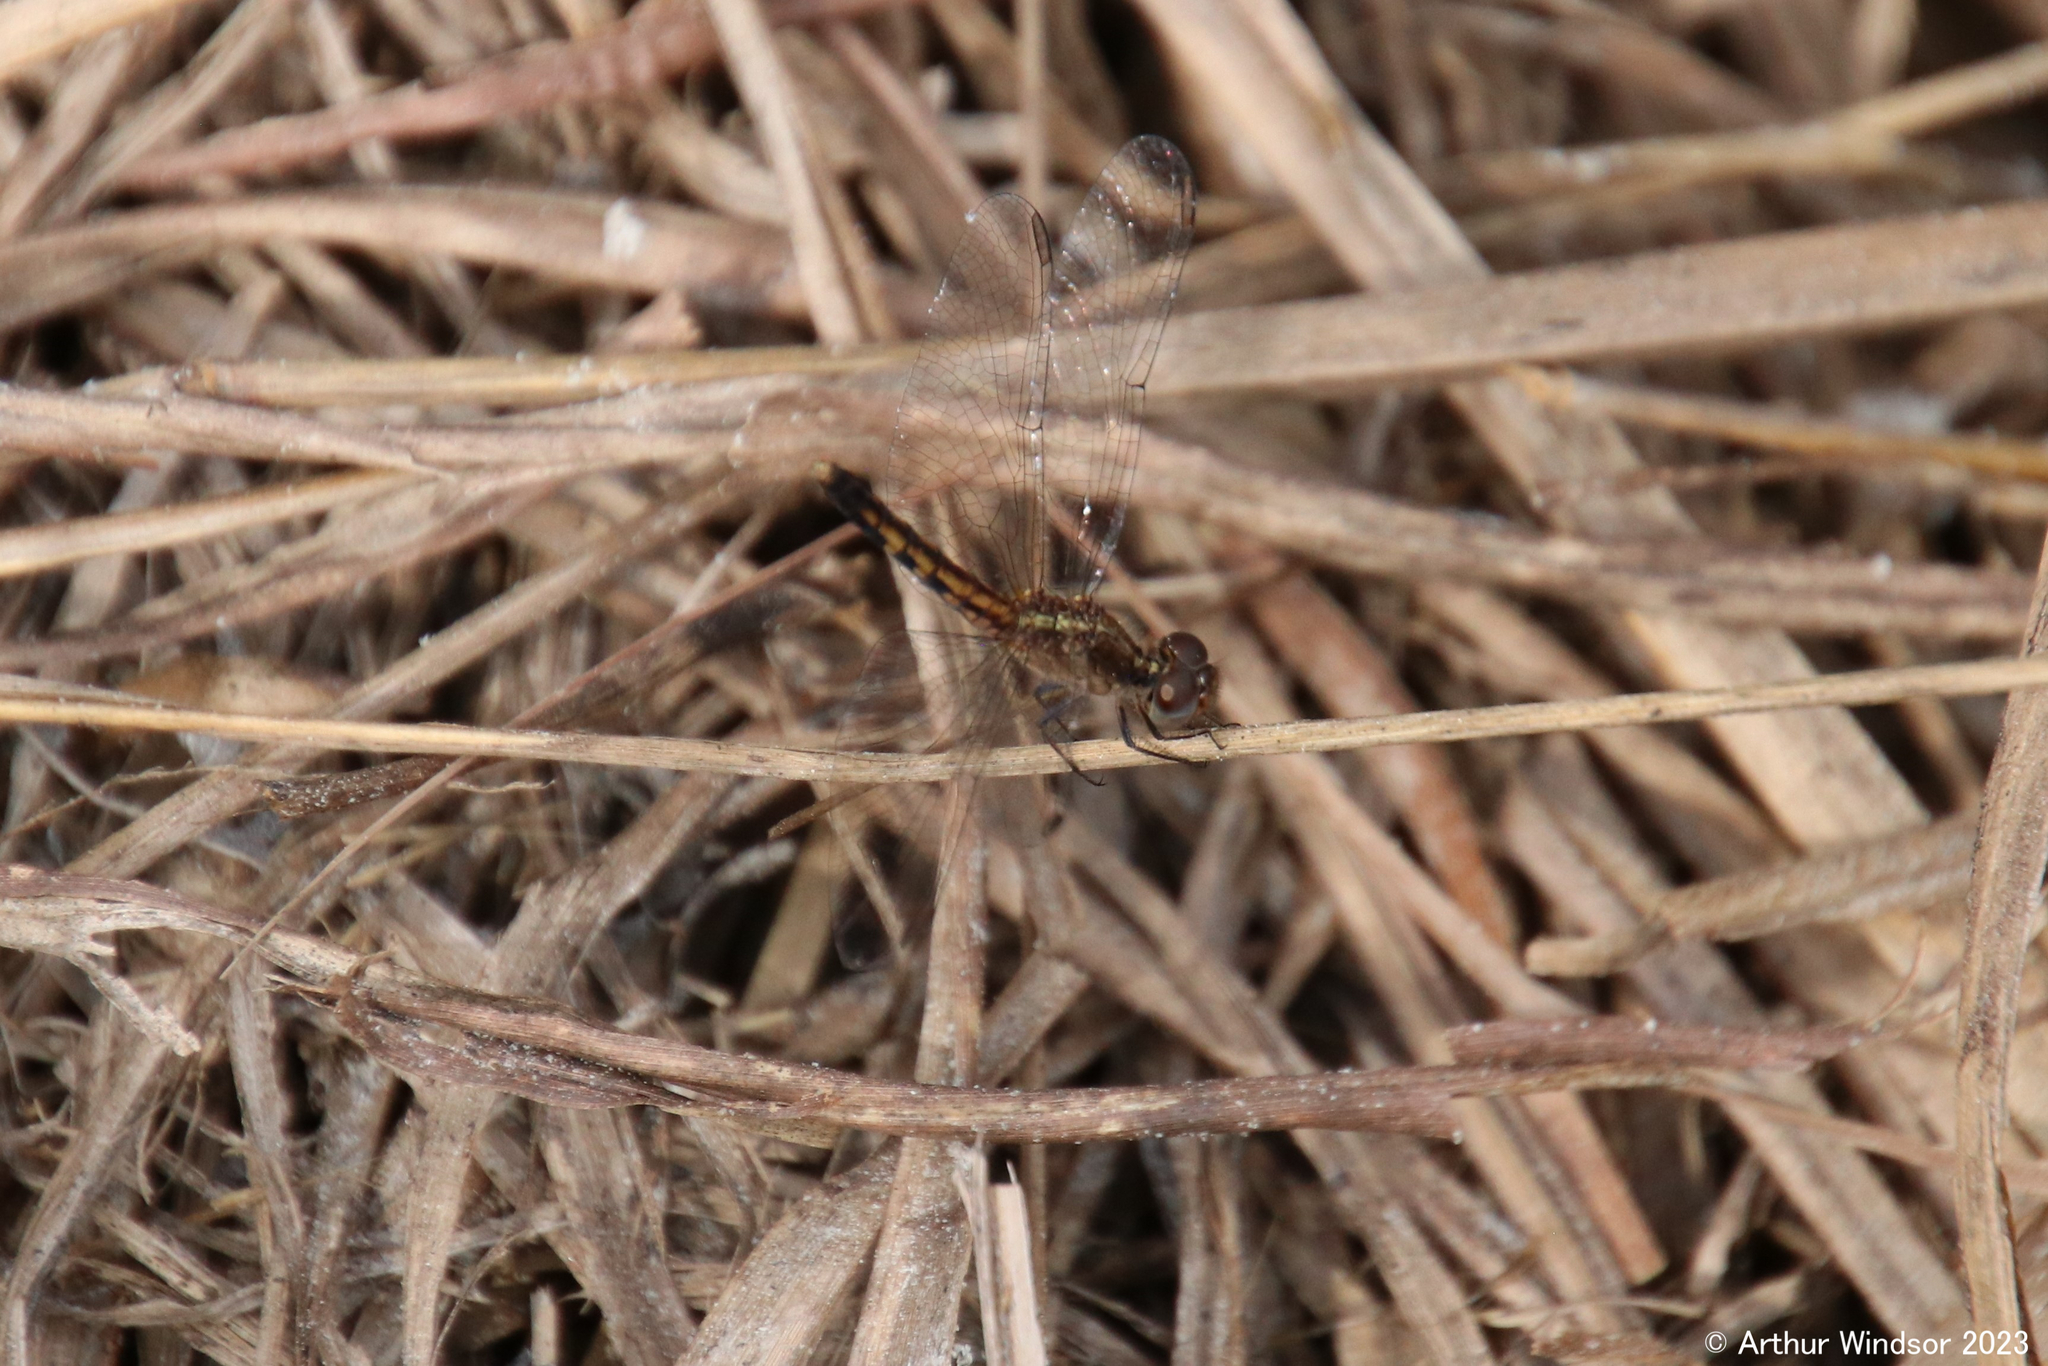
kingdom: Animalia
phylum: Arthropoda
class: Insecta
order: Odonata
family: Libellulidae
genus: Erythrodiplax
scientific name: Erythrodiplax minuscula
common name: Little blue dragonlet
